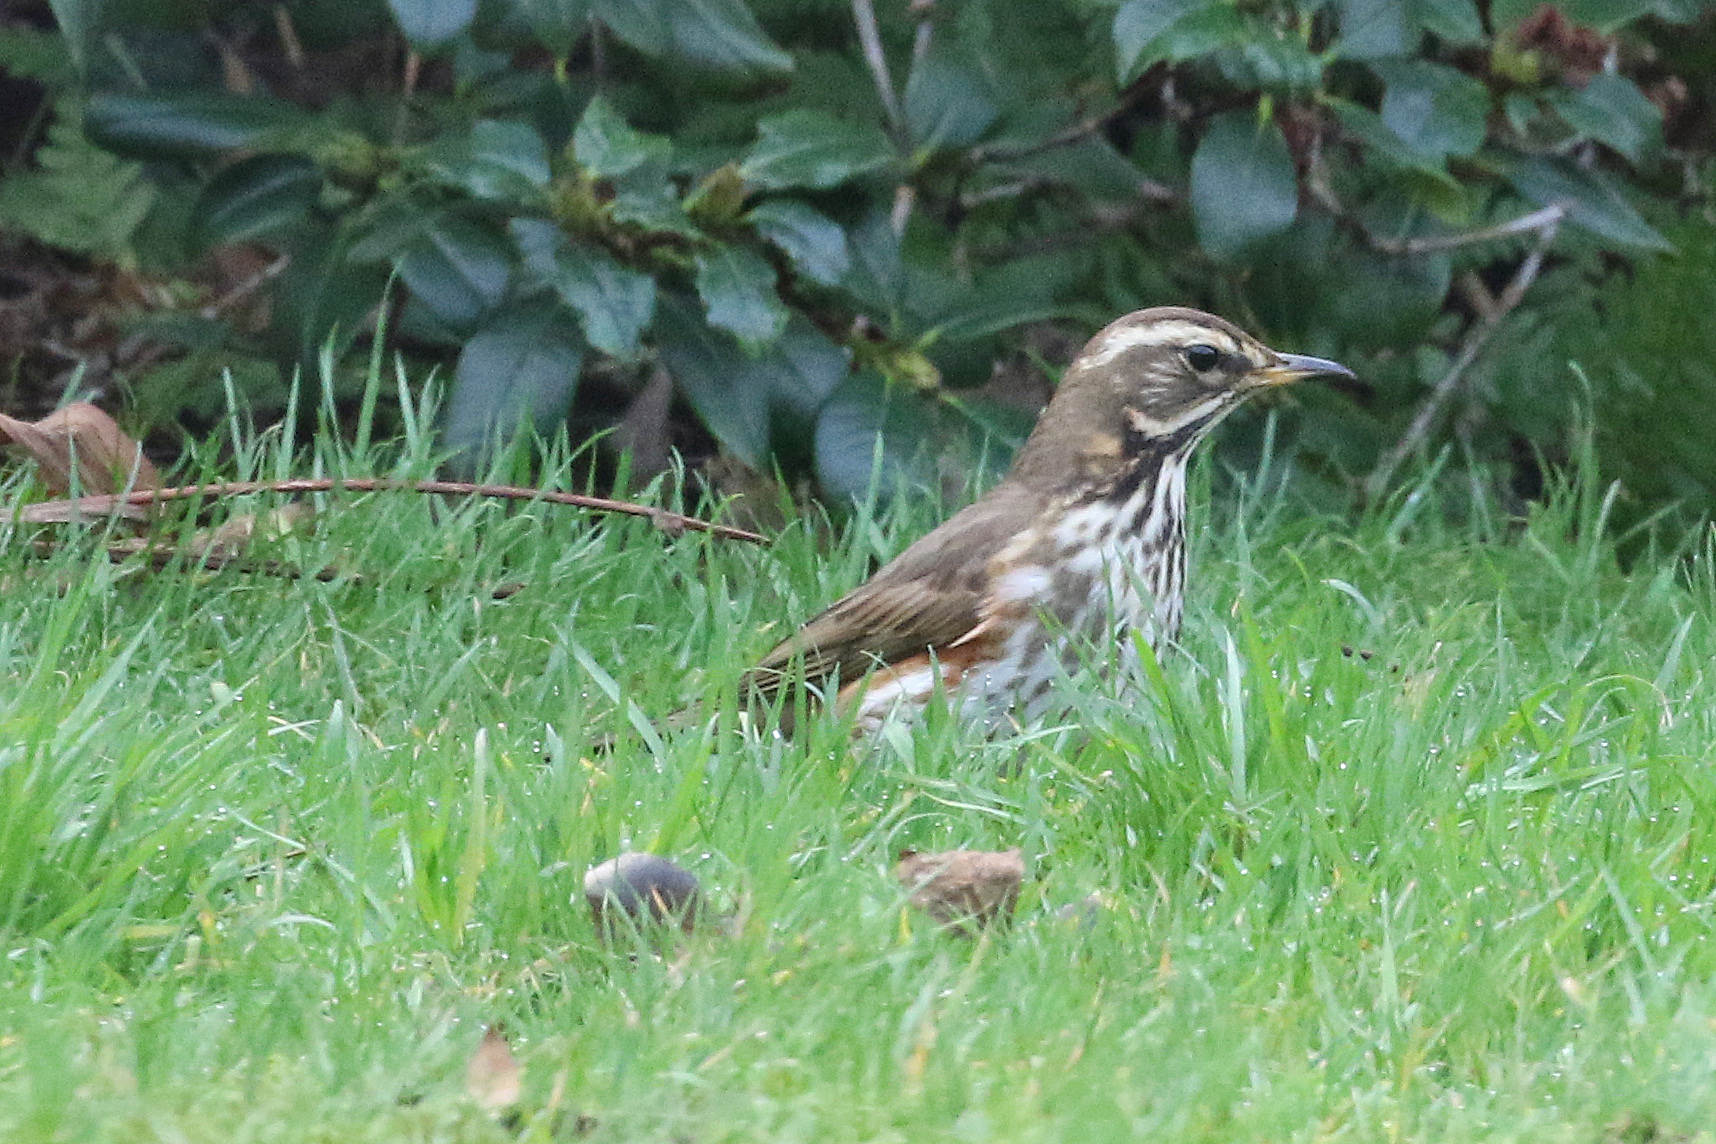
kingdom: Animalia
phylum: Chordata
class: Aves
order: Passeriformes
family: Turdidae
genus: Turdus
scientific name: Turdus iliacus
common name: Redwing
